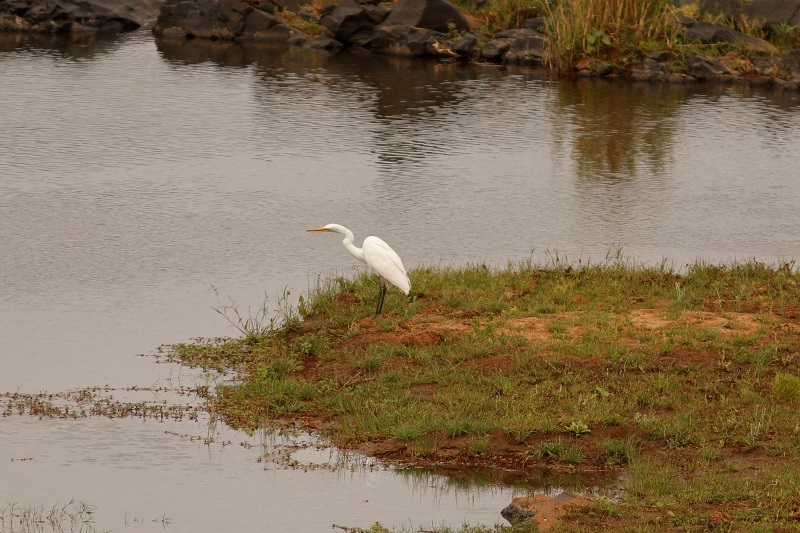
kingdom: Animalia
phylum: Chordata
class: Aves
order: Pelecaniformes
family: Ardeidae
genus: Ardea
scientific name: Ardea alba
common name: Great egret
